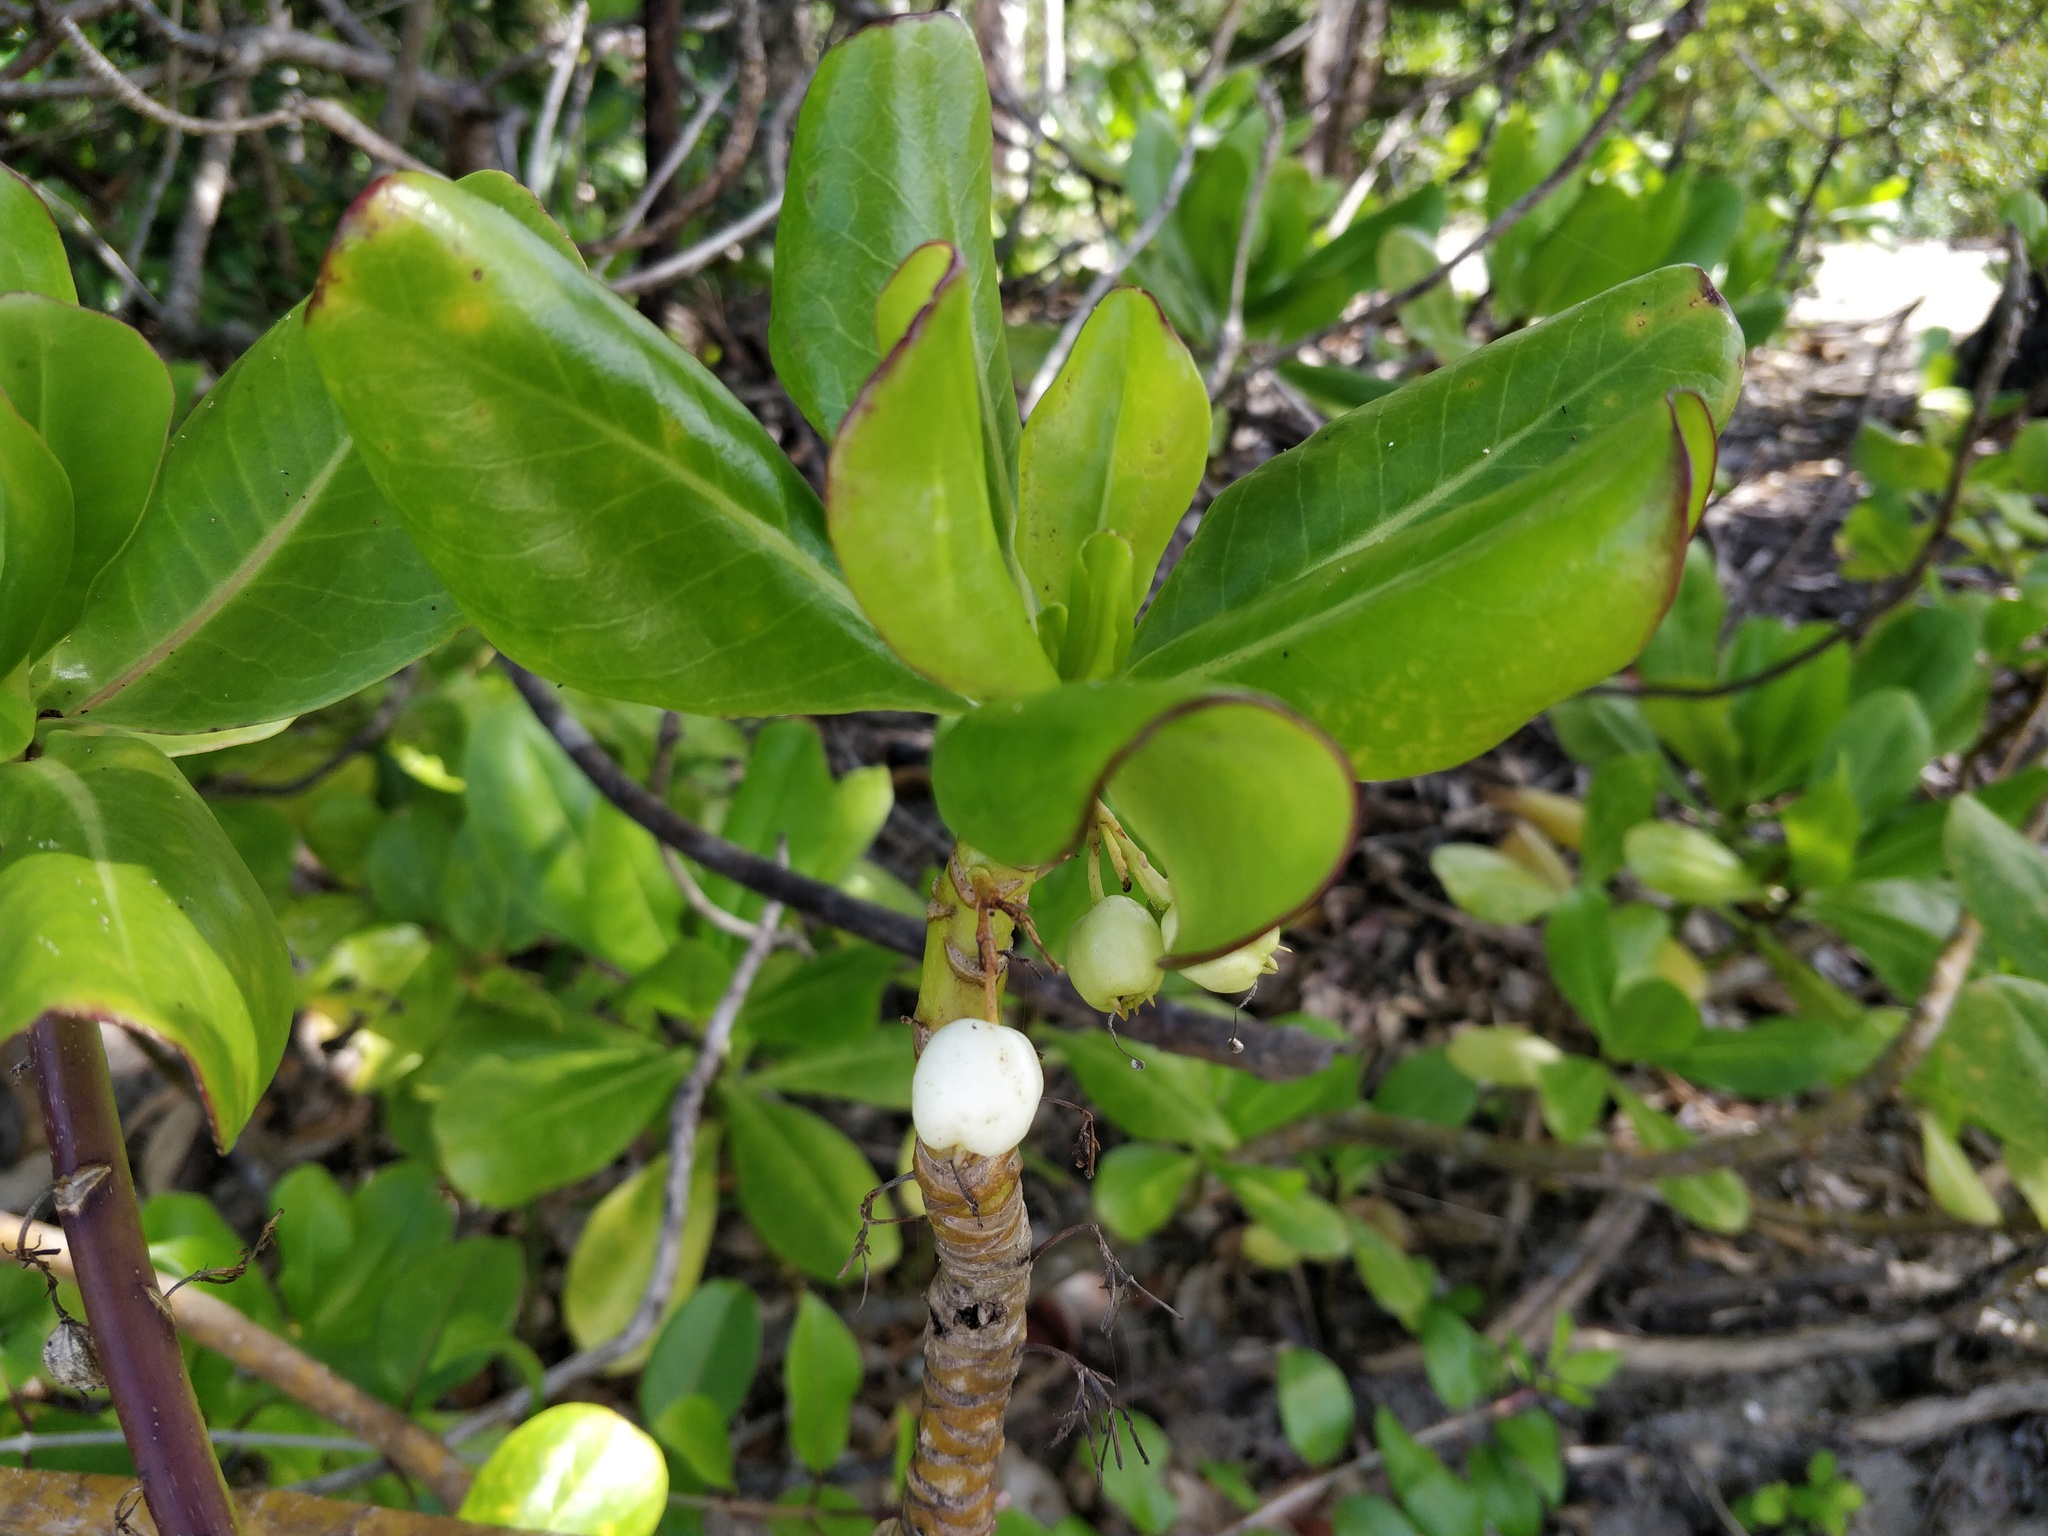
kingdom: Plantae
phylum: Tracheophyta
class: Magnoliopsida
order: Asterales
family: Goodeniaceae
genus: Scaevola
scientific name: Scaevola taccada
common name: Sea lettucetree
